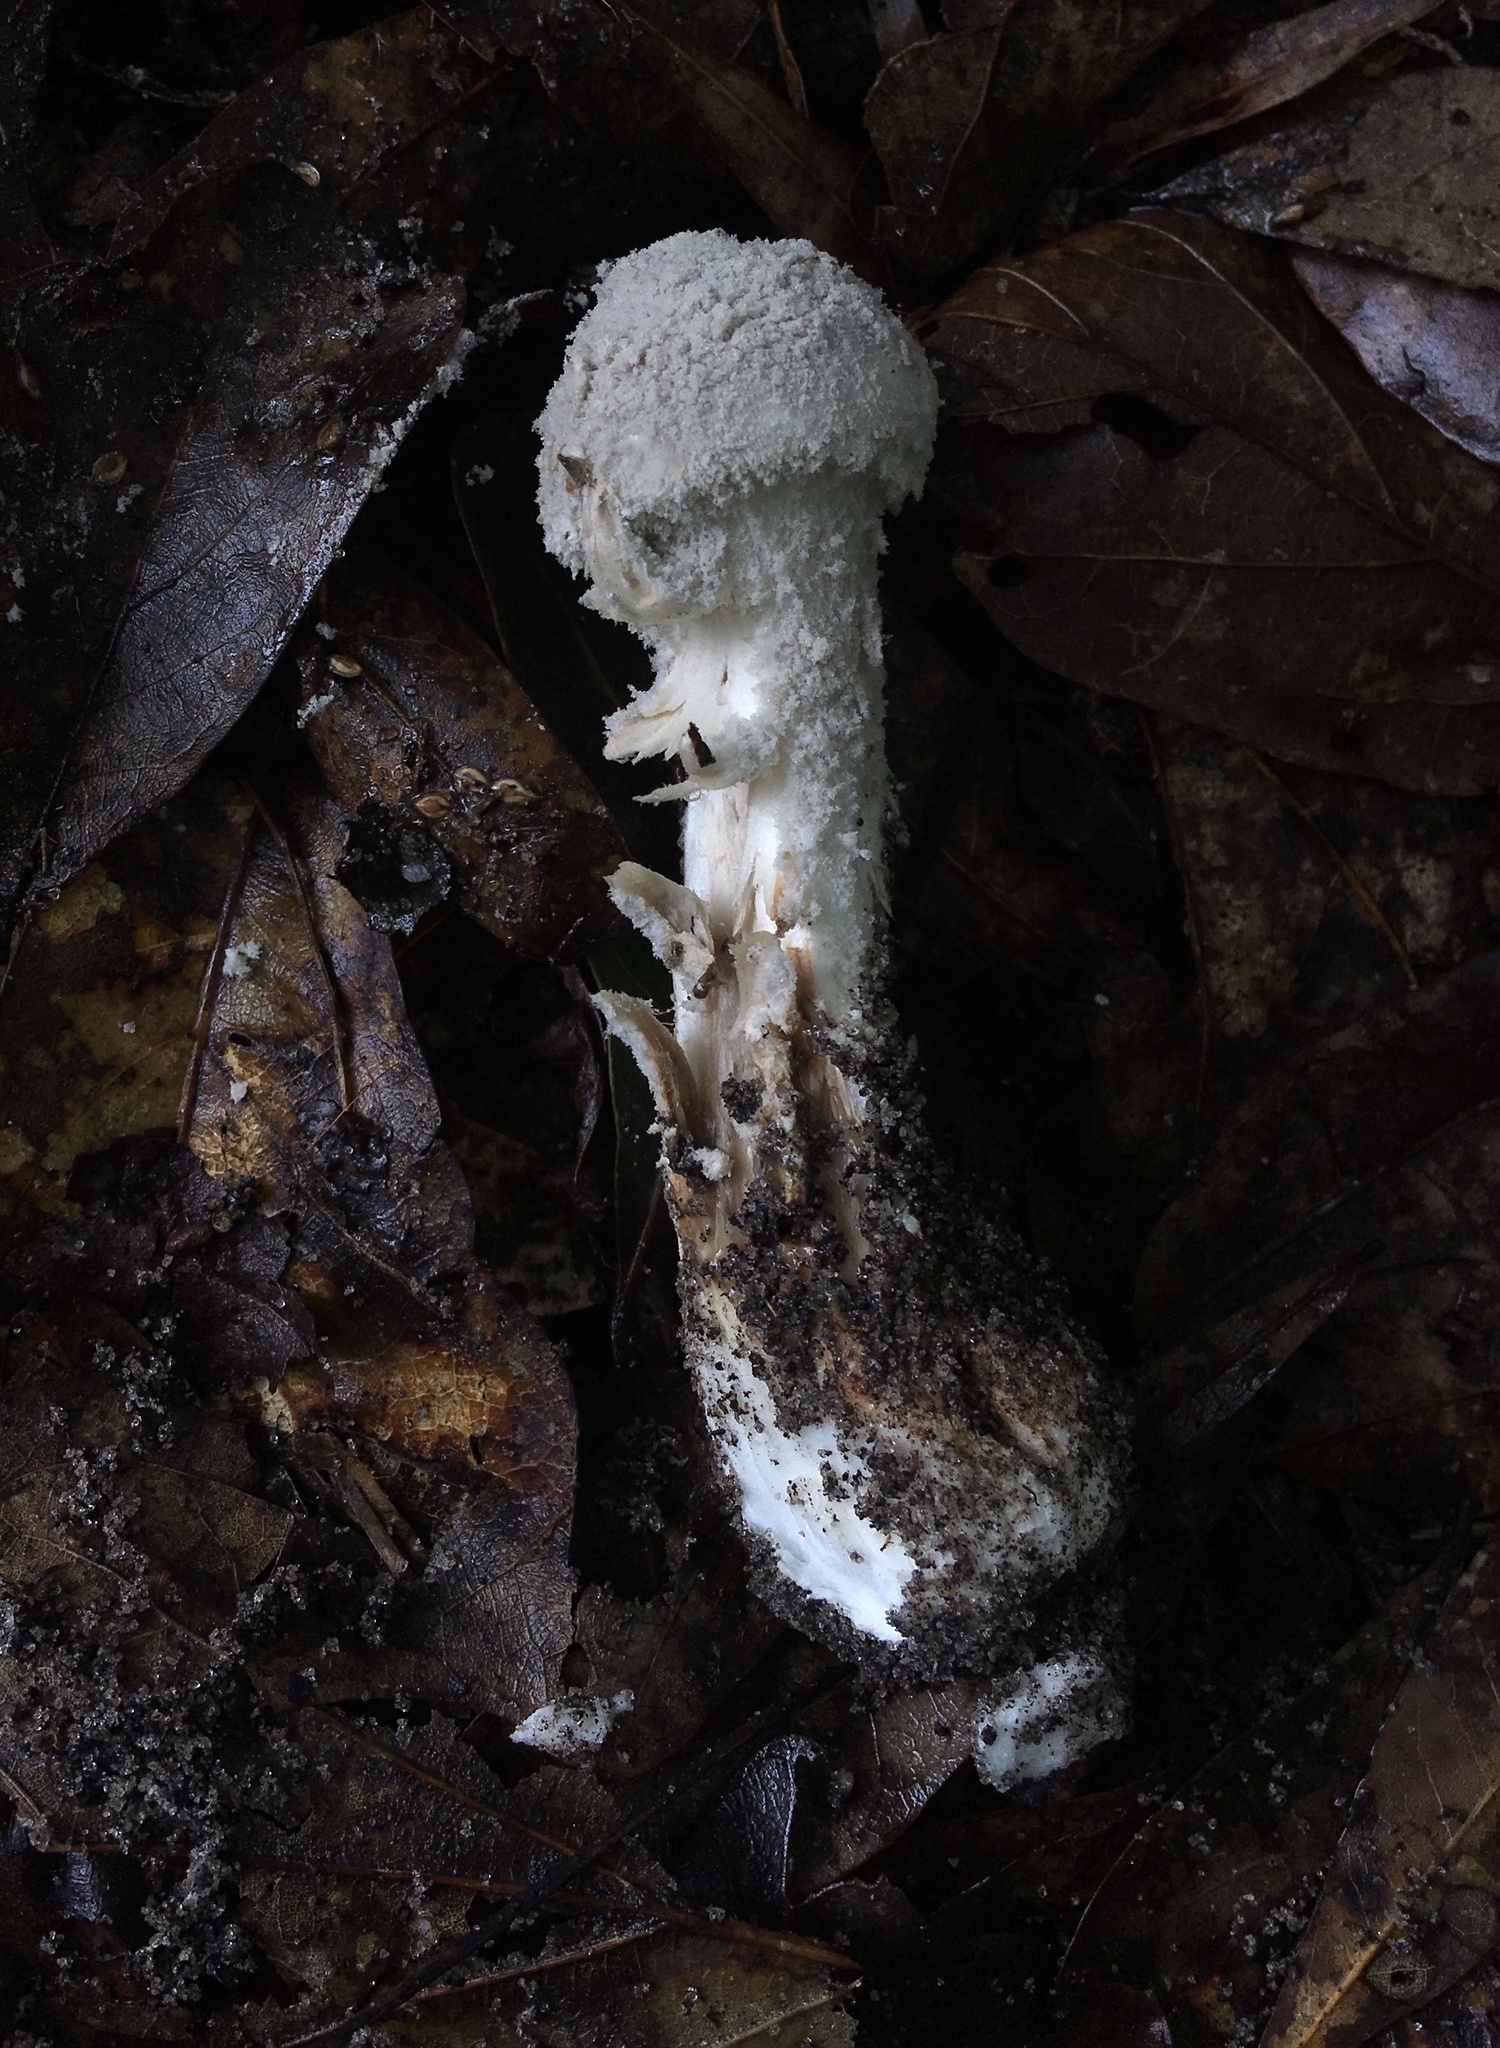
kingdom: Fungi
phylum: Basidiomycota
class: Agaricomycetes
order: Agaricales
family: Amanitaceae
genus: Amanita
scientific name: Amanita chlorinosma
